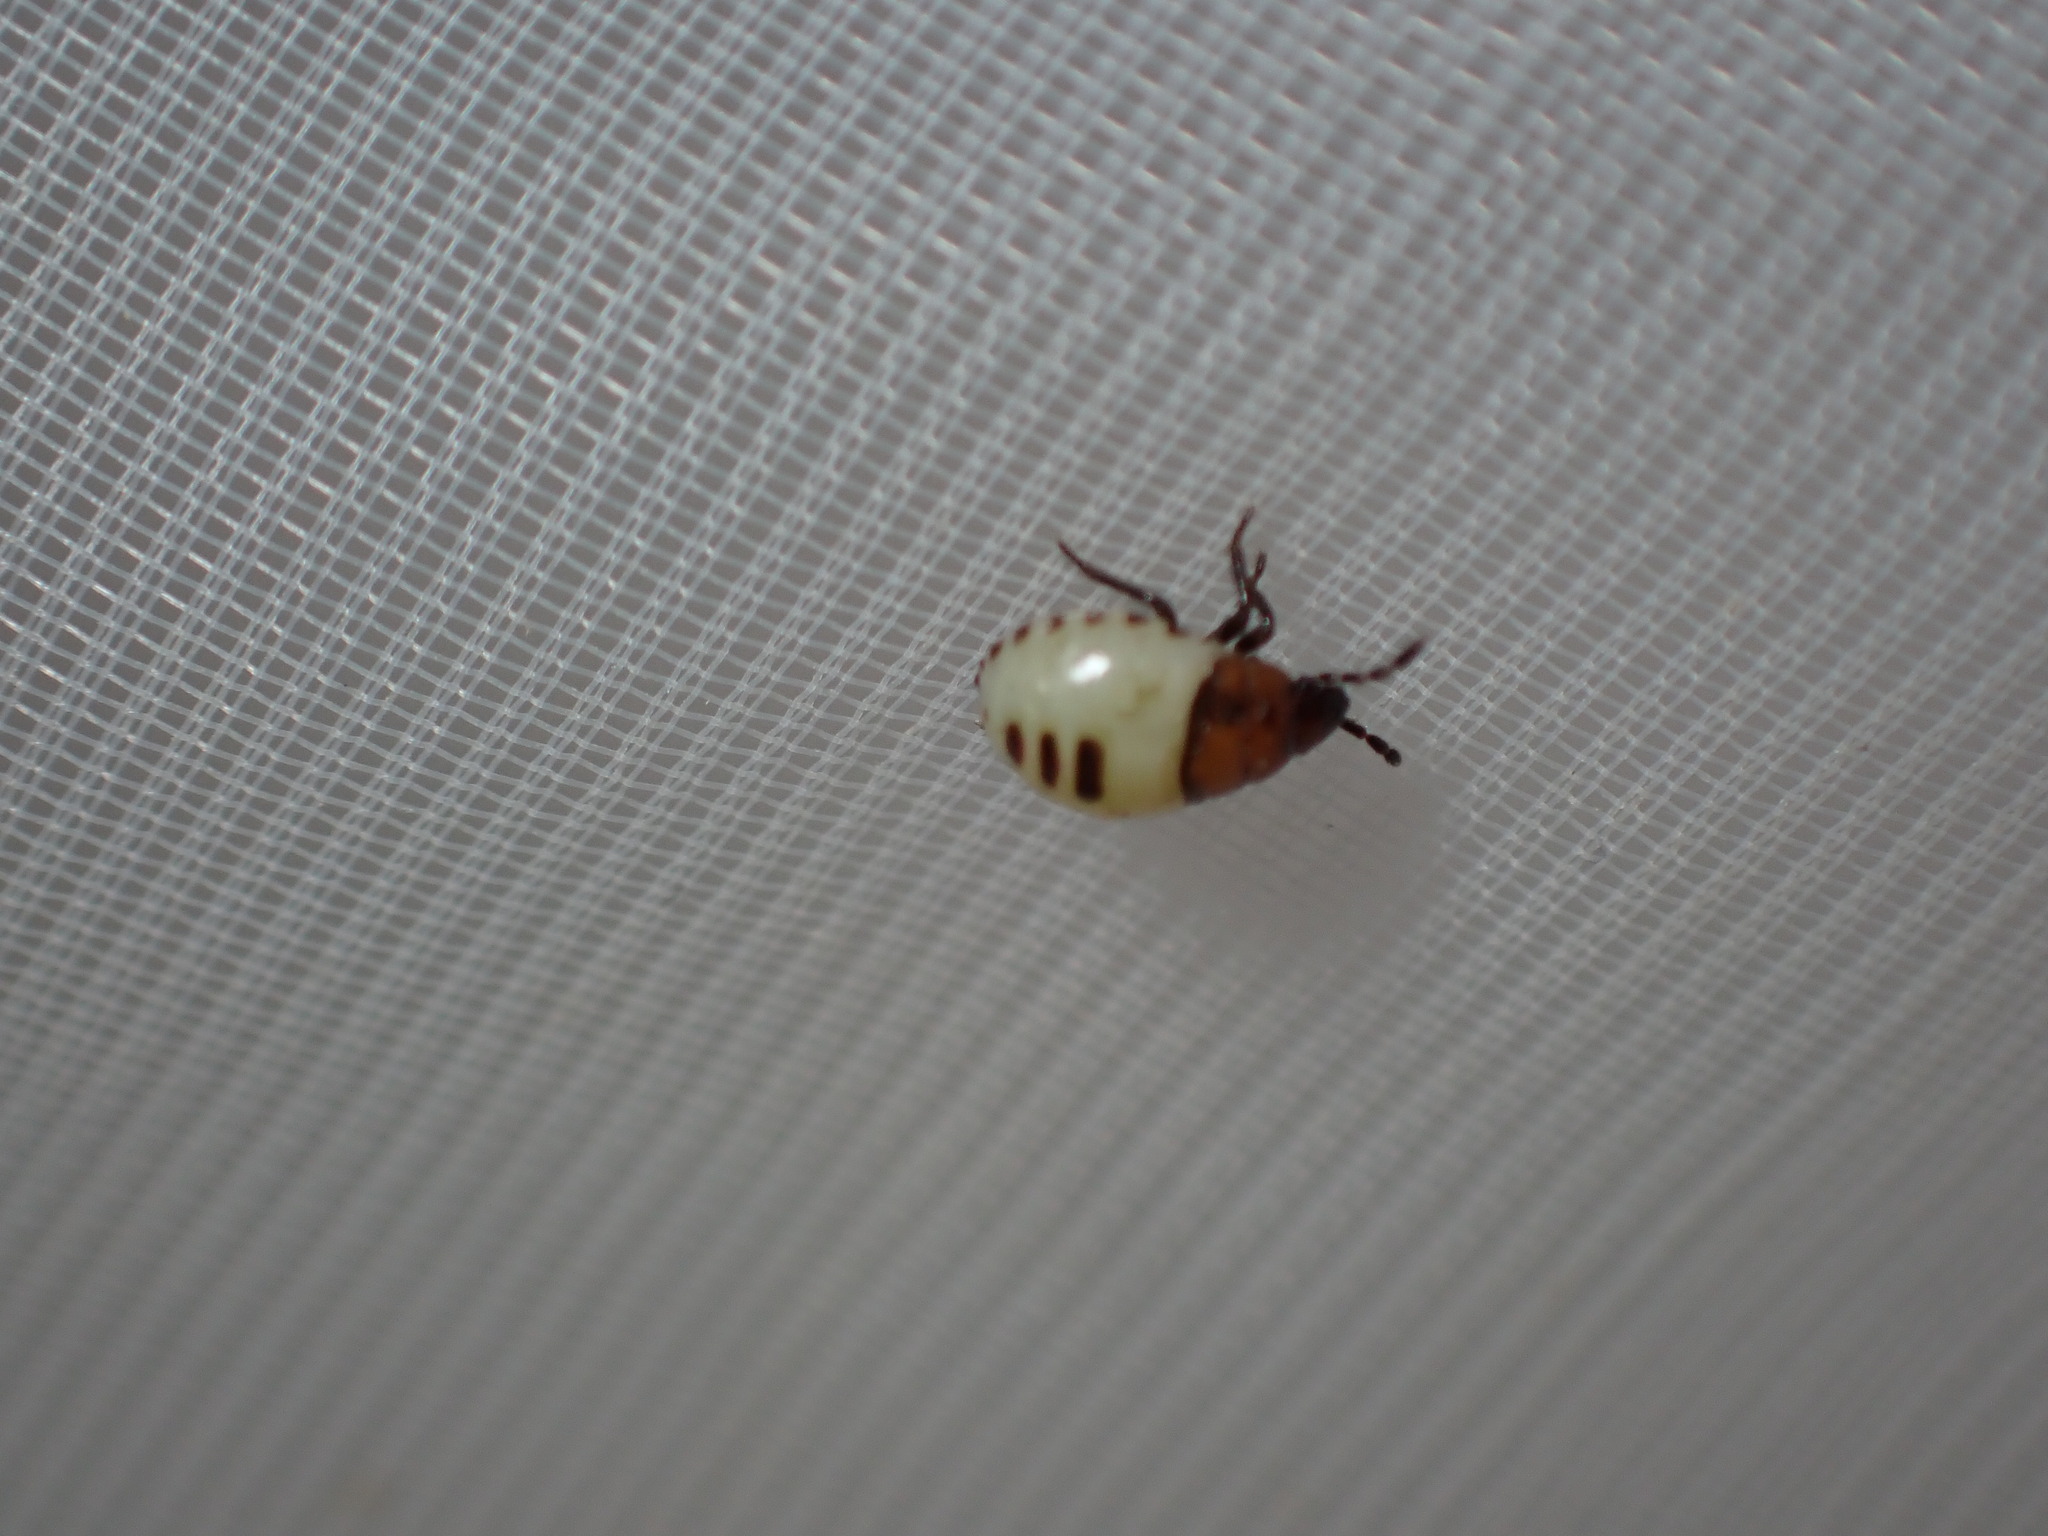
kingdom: Animalia
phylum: Arthropoda
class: Insecta
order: Hemiptera
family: Cydnidae
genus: Tritomegas
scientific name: Tritomegas sexmaculatus
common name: Rambur's pied shieldbug
